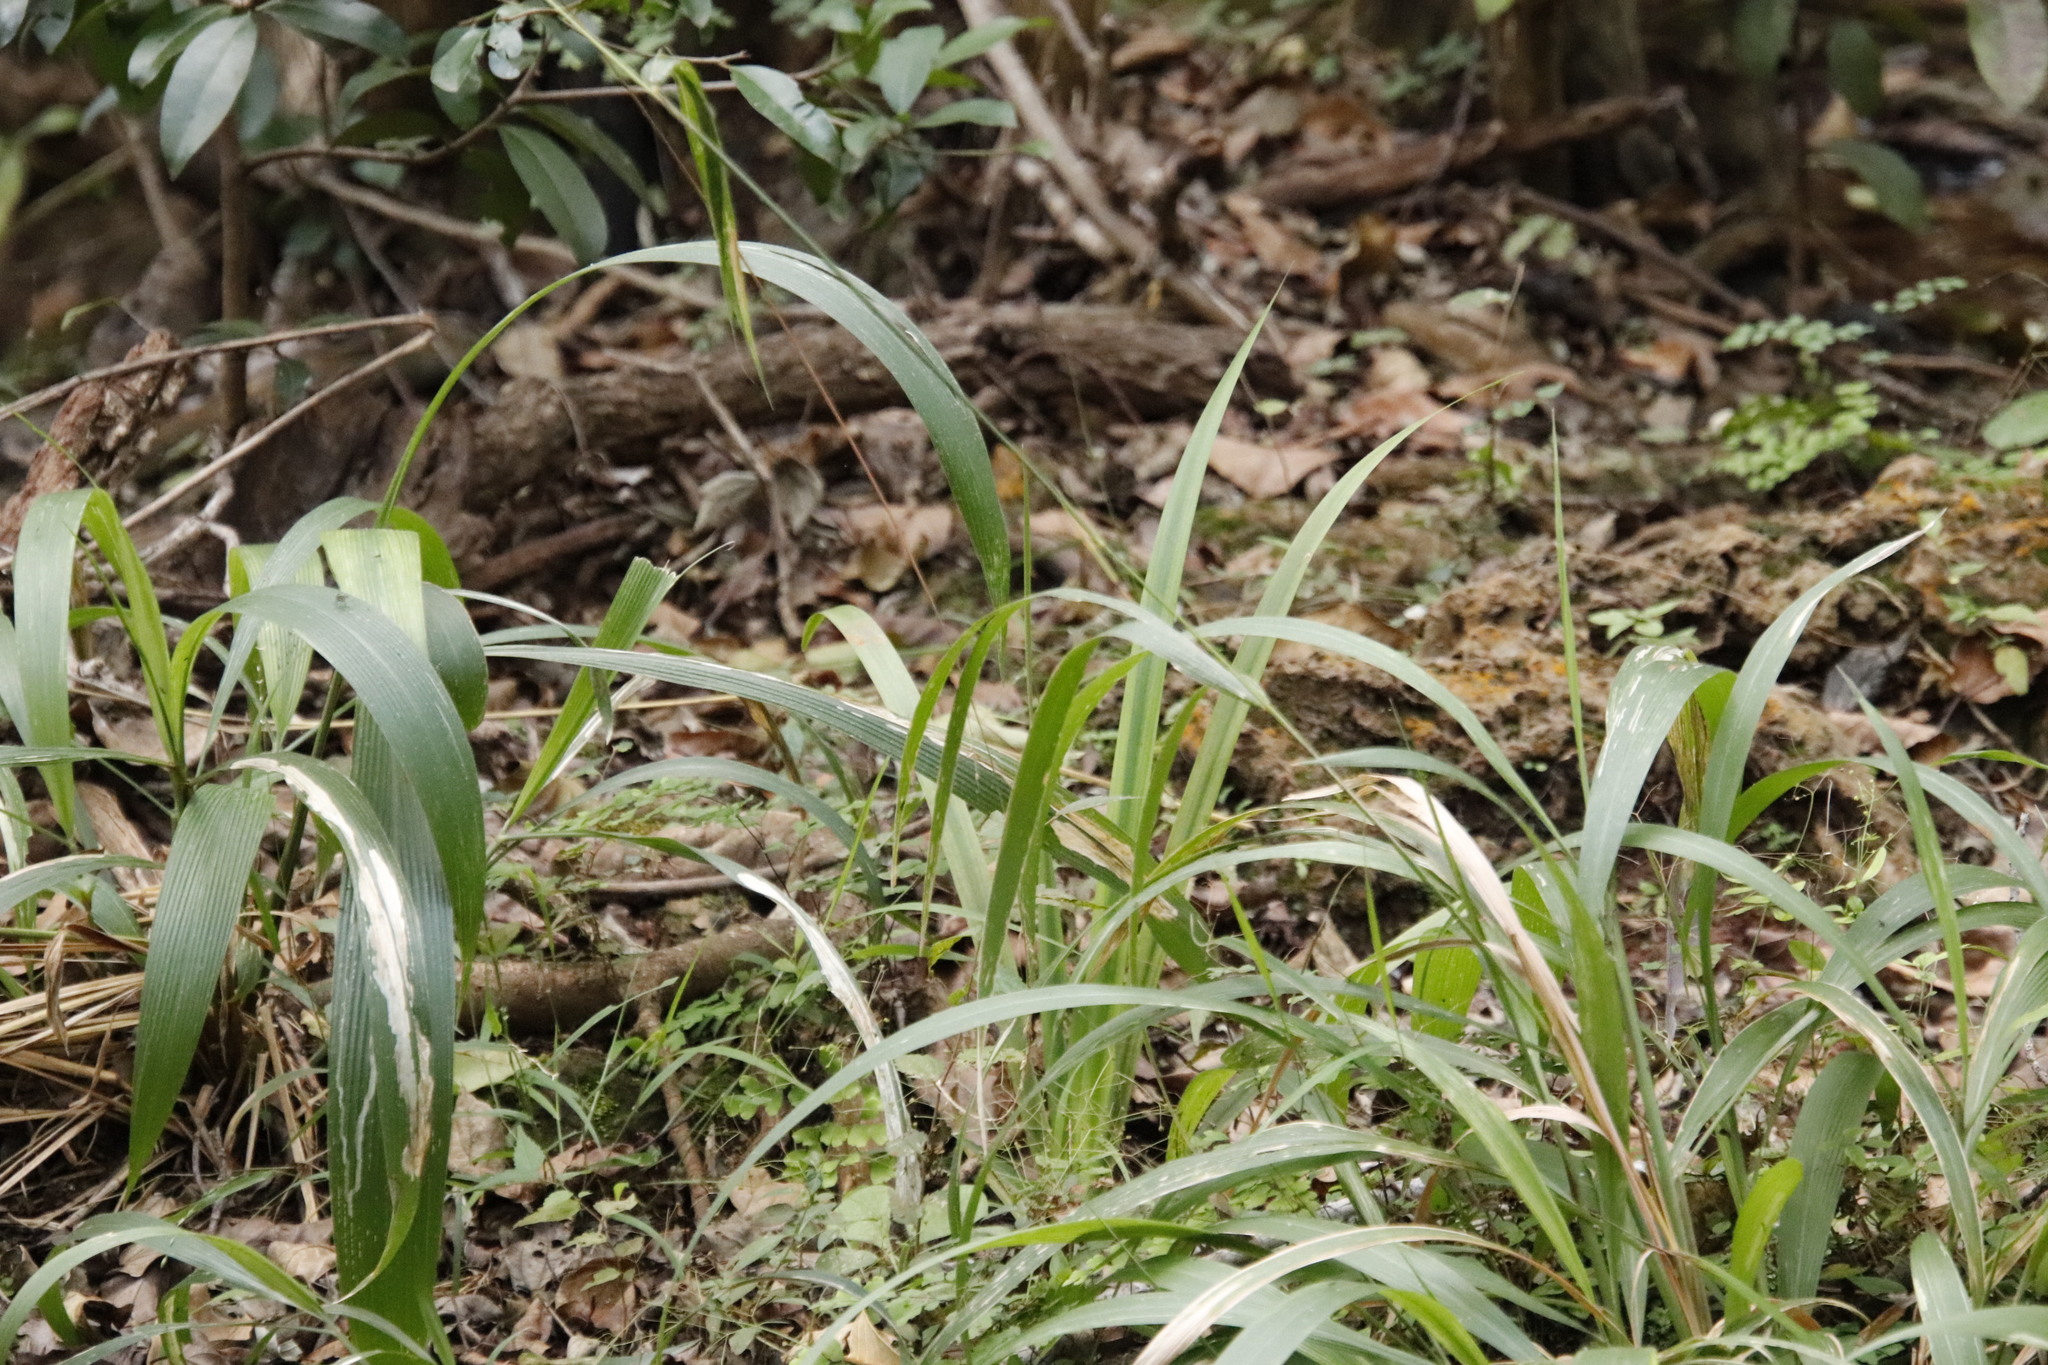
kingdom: Plantae
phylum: Tracheophyta
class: Liliopsida
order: Poales
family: Poaceae
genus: Setaria
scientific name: Setaria megaphylla
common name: Bigleaf bristlegrass
